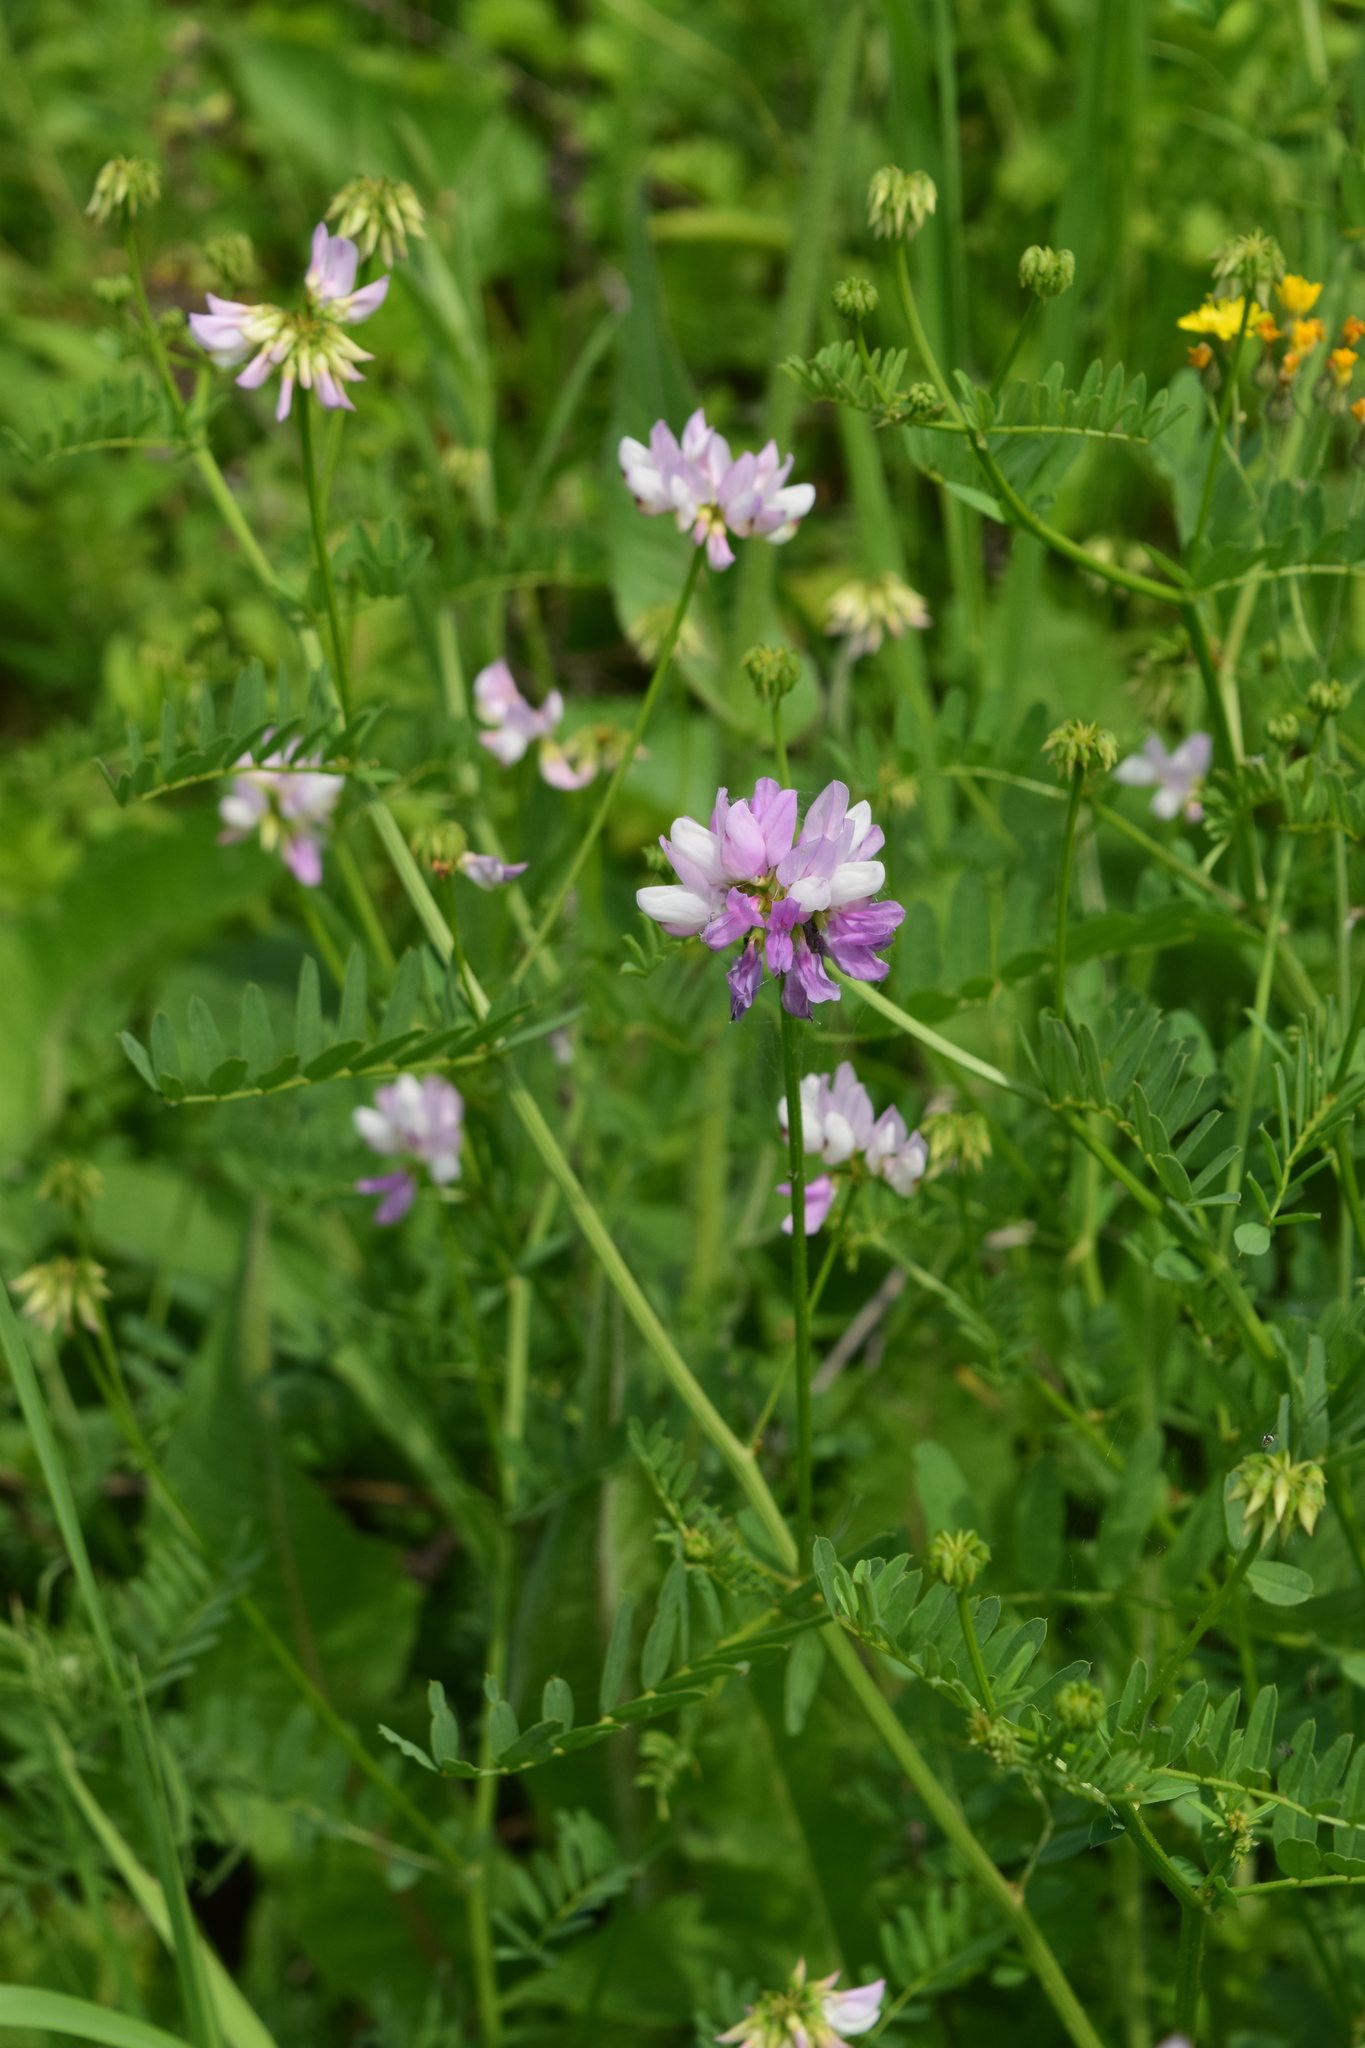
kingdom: Plantae
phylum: Tracheophyta
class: Magnoliopsida
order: Fabales
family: Fabaceae
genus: Coronilla
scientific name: Coronilla varia
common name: Crownvetch
